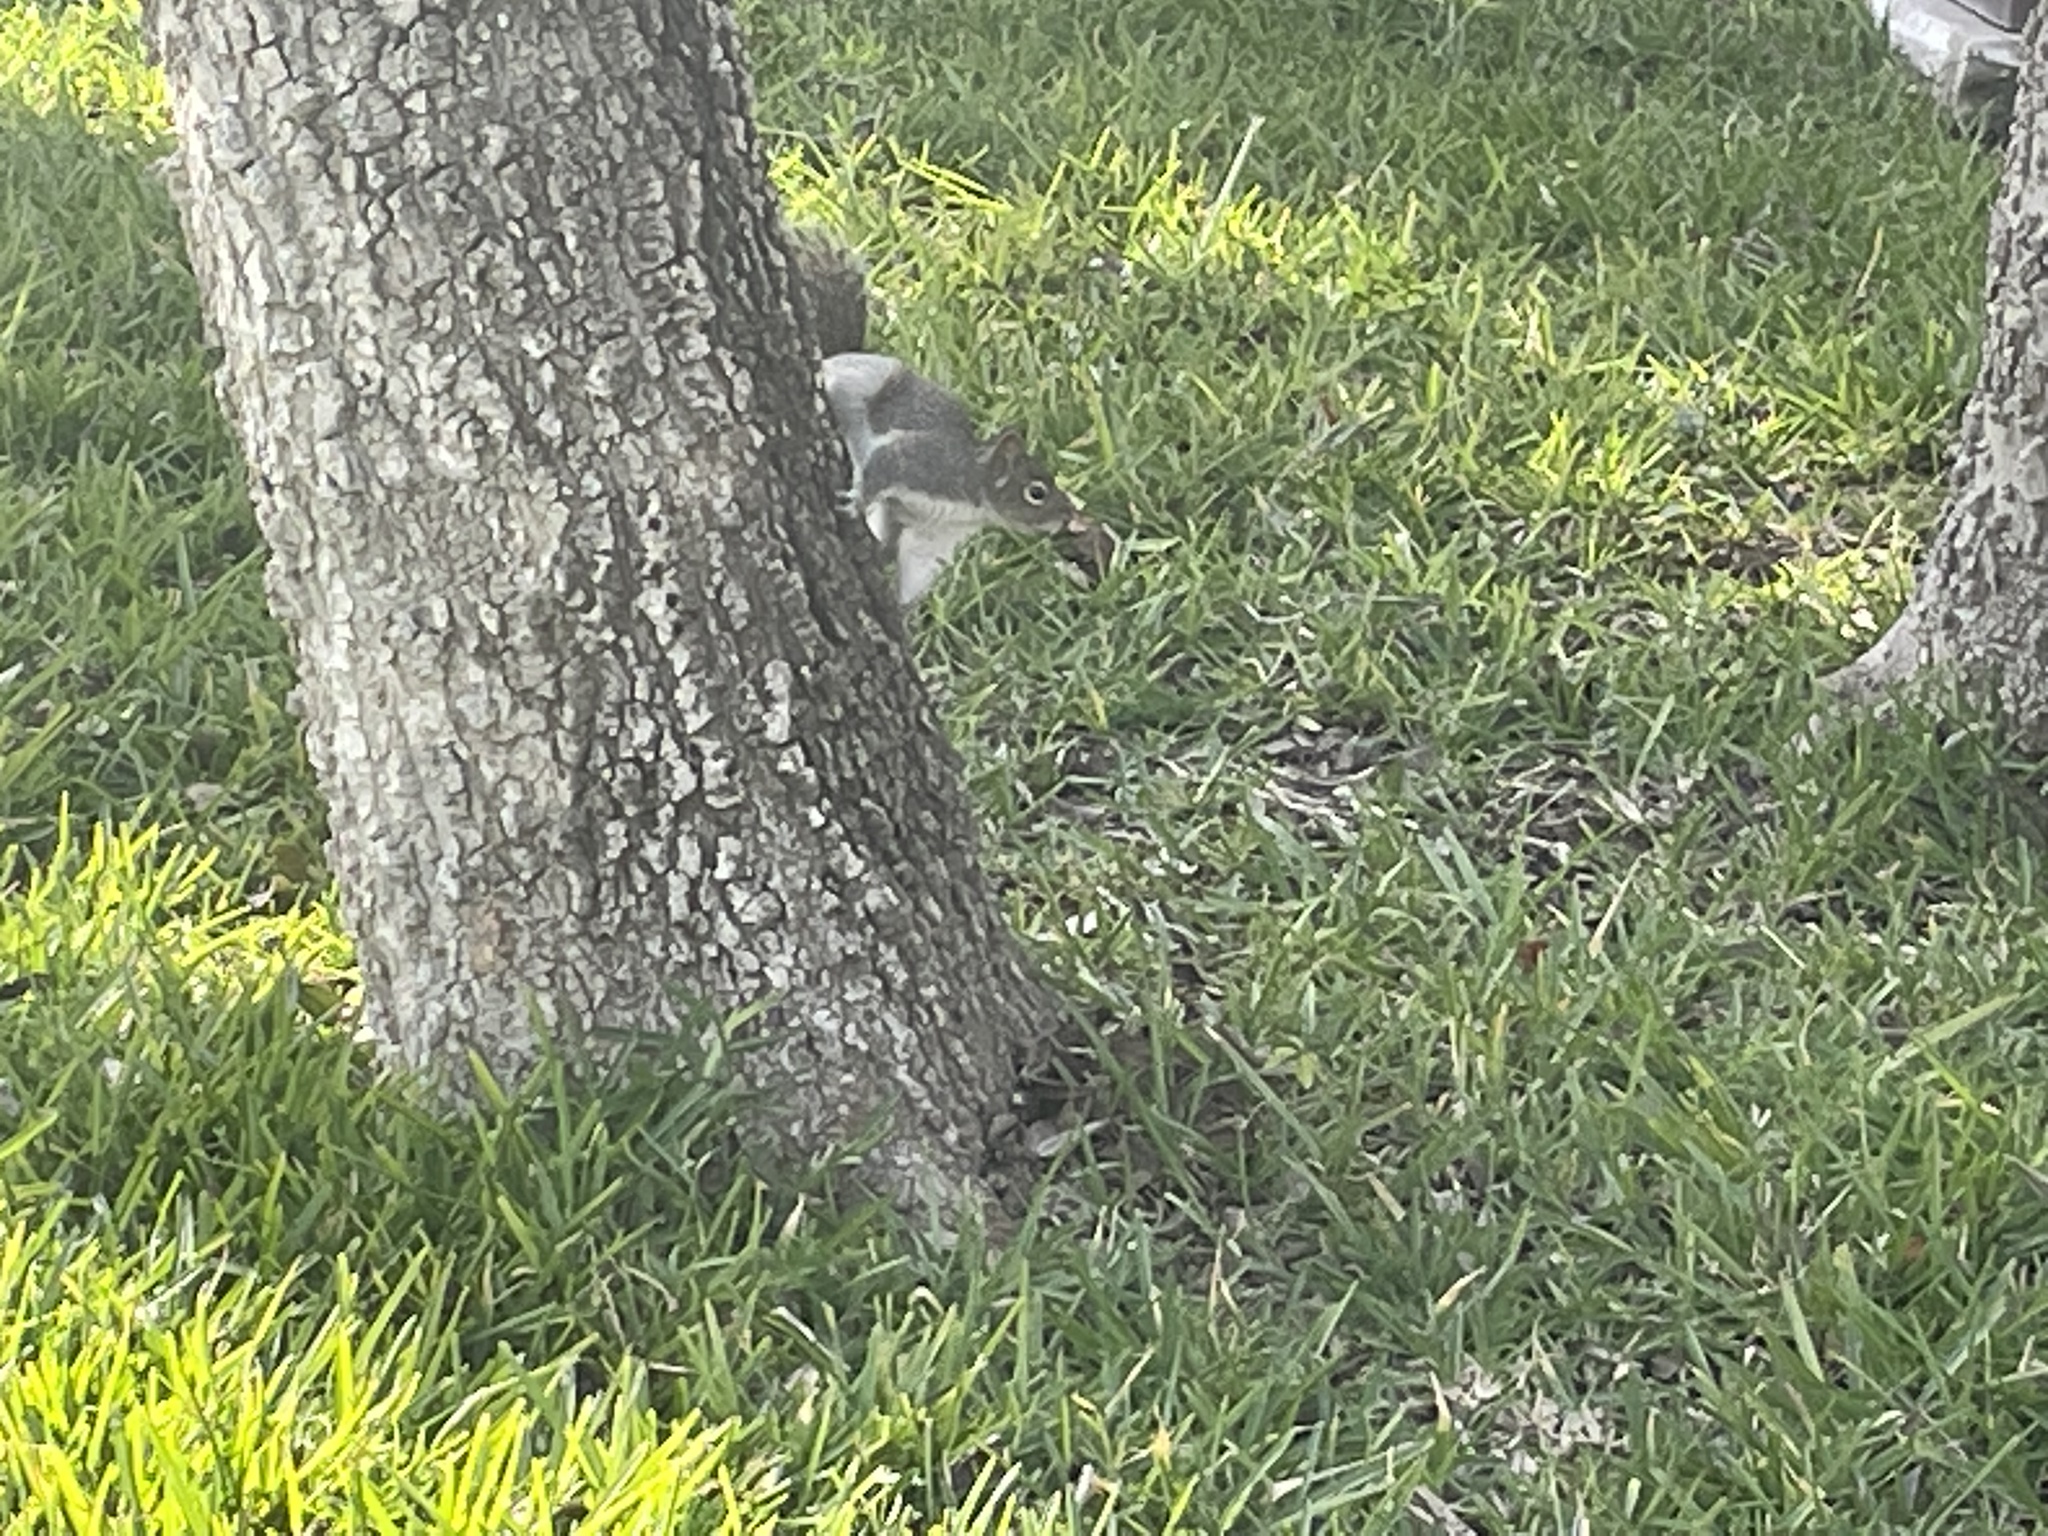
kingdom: Animalia
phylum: Chordata
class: Mammalia
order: Rodentia
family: Sciuridae
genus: Sciurus
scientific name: Sciurus alleni
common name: Allen's squirrel
